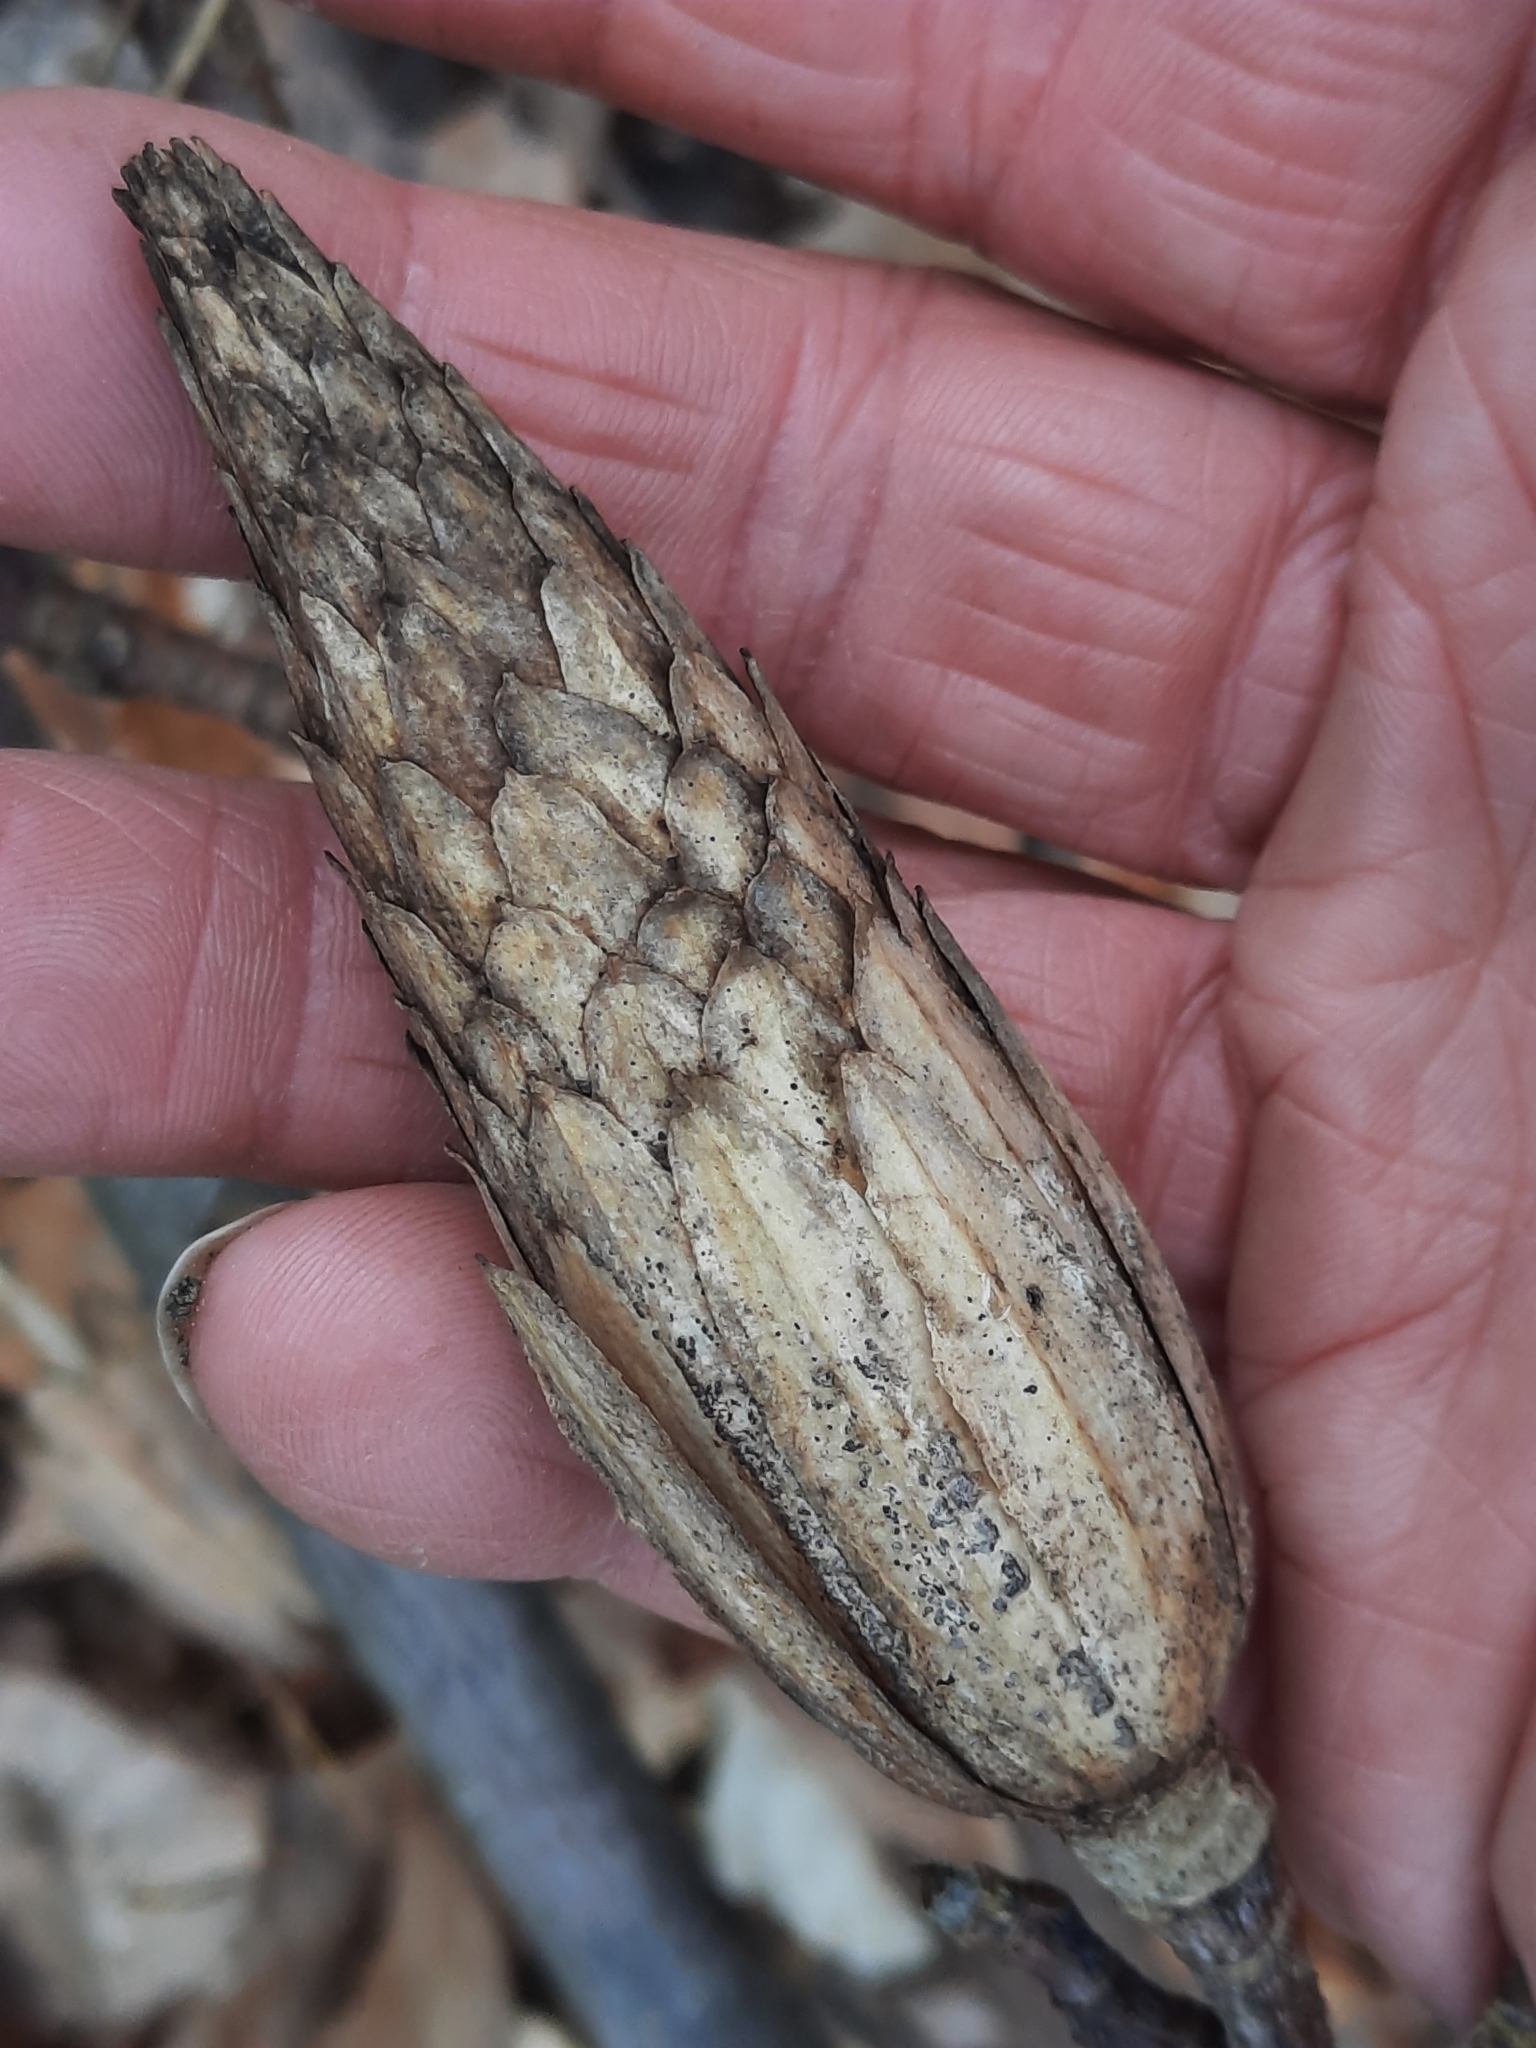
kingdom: Plantae
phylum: Tracheophyta
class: Magnoliopsida
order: Magnoliales
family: Magnoliaceae
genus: Liriodendron
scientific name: Liriodendron tulipifera
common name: Tulip tree
